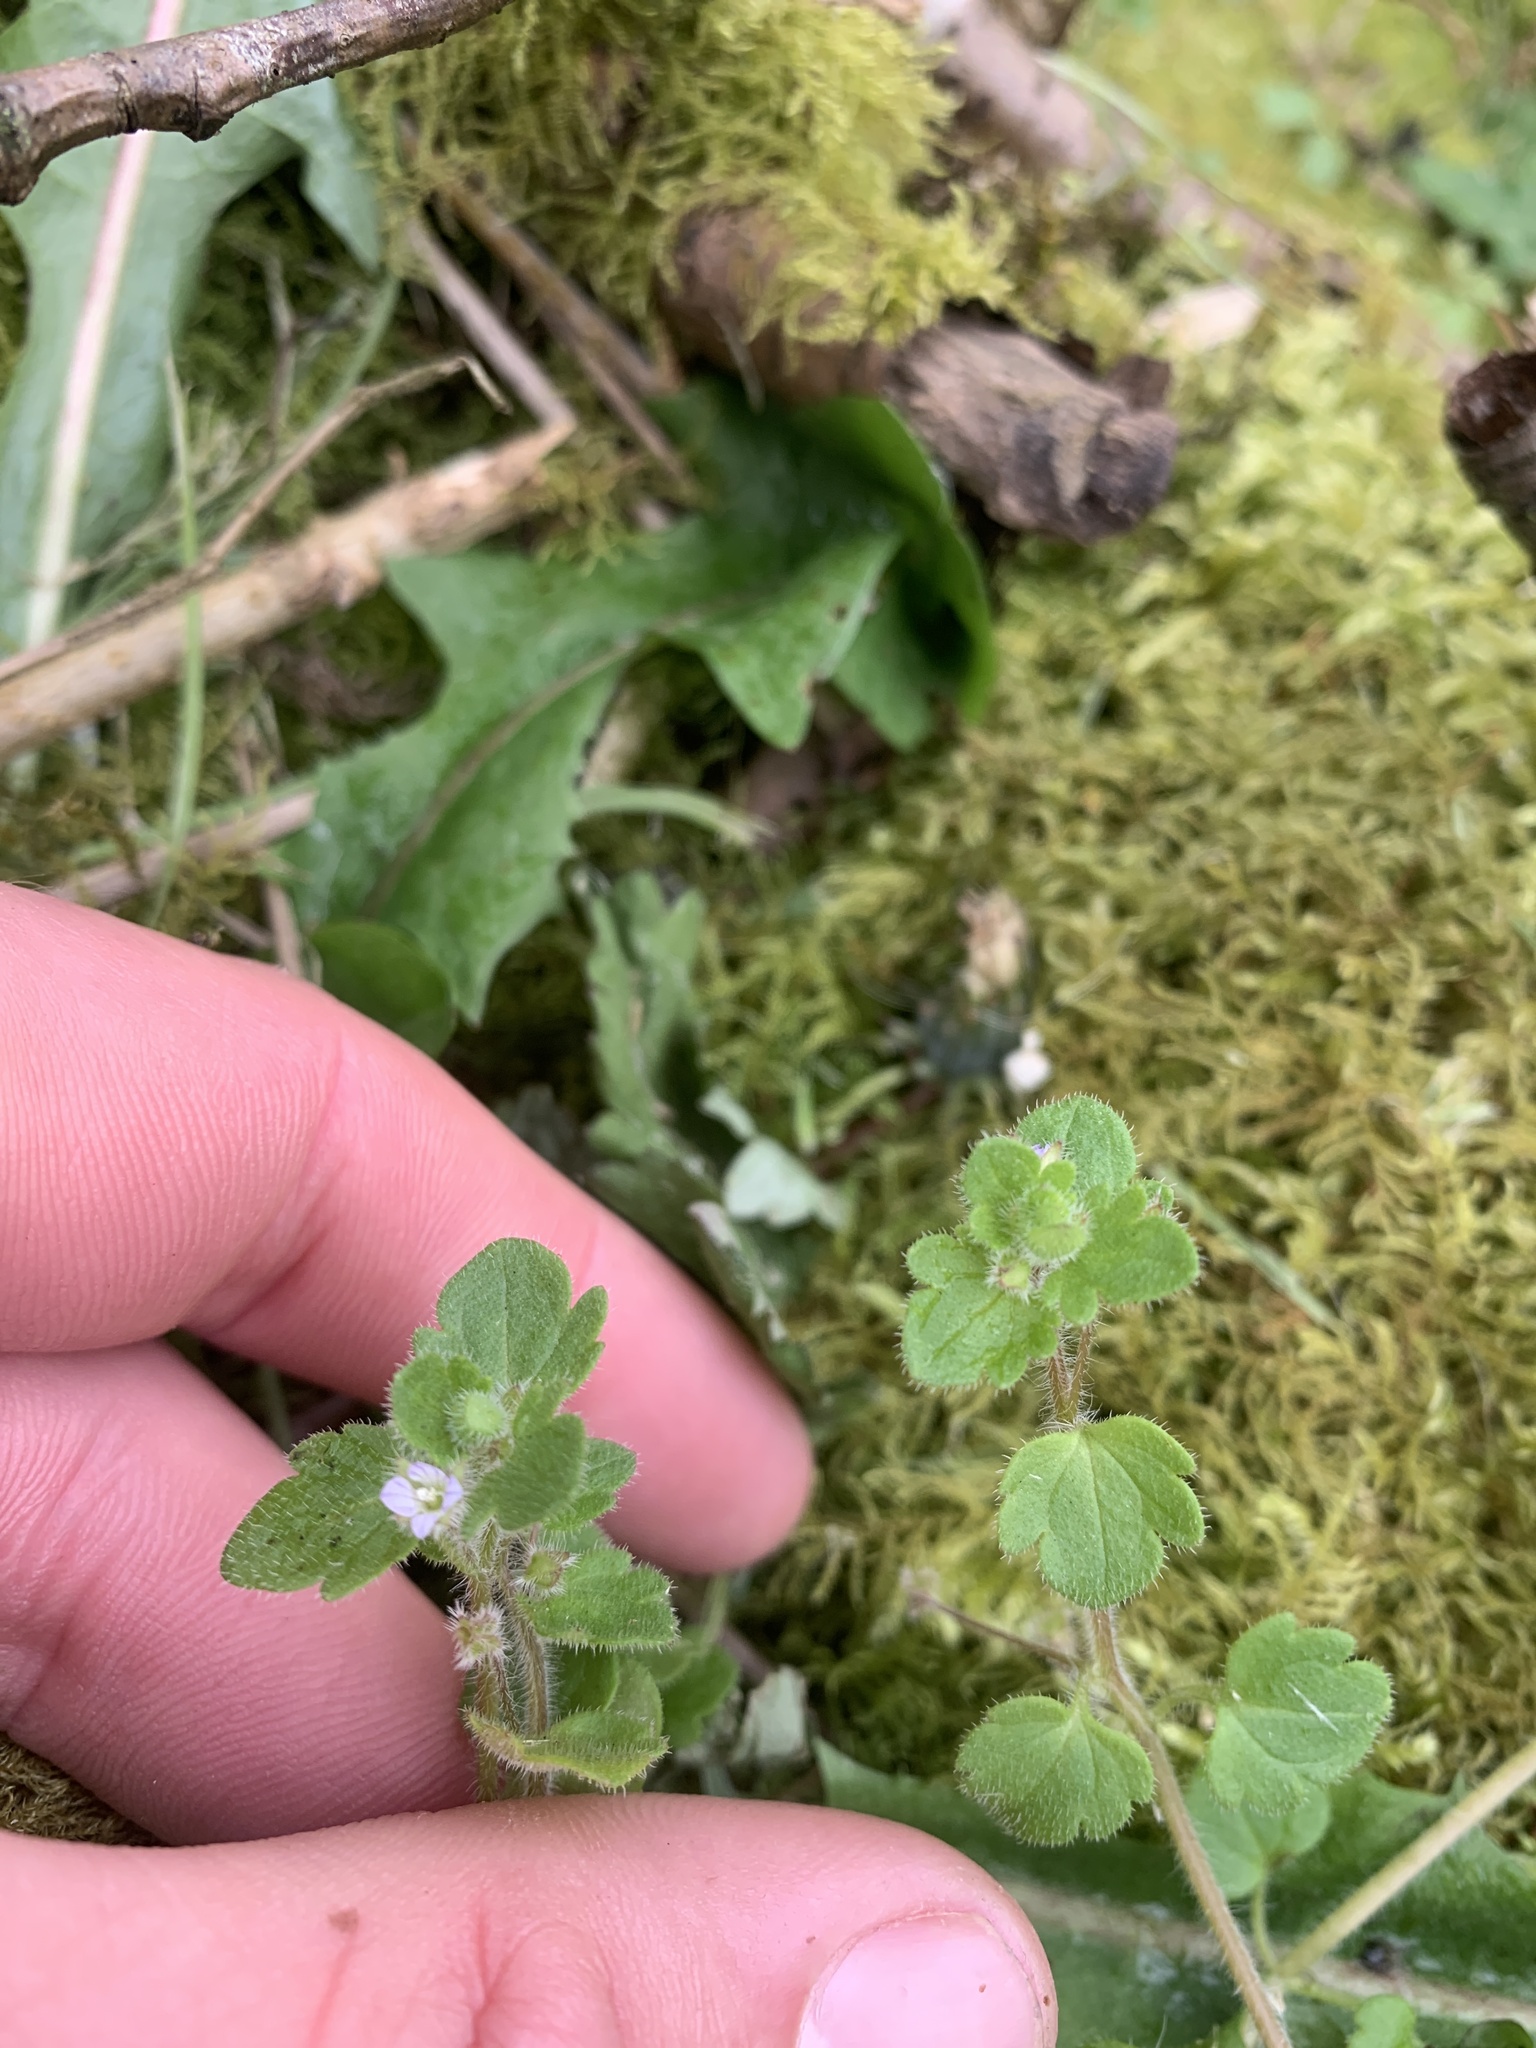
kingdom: Plantae
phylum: Tracheophyta
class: Magnoliopsida
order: Lamiales
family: Plantaginaceae
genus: Veronica
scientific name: Veronica sublobata
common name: False ivy-leaved speedwell
